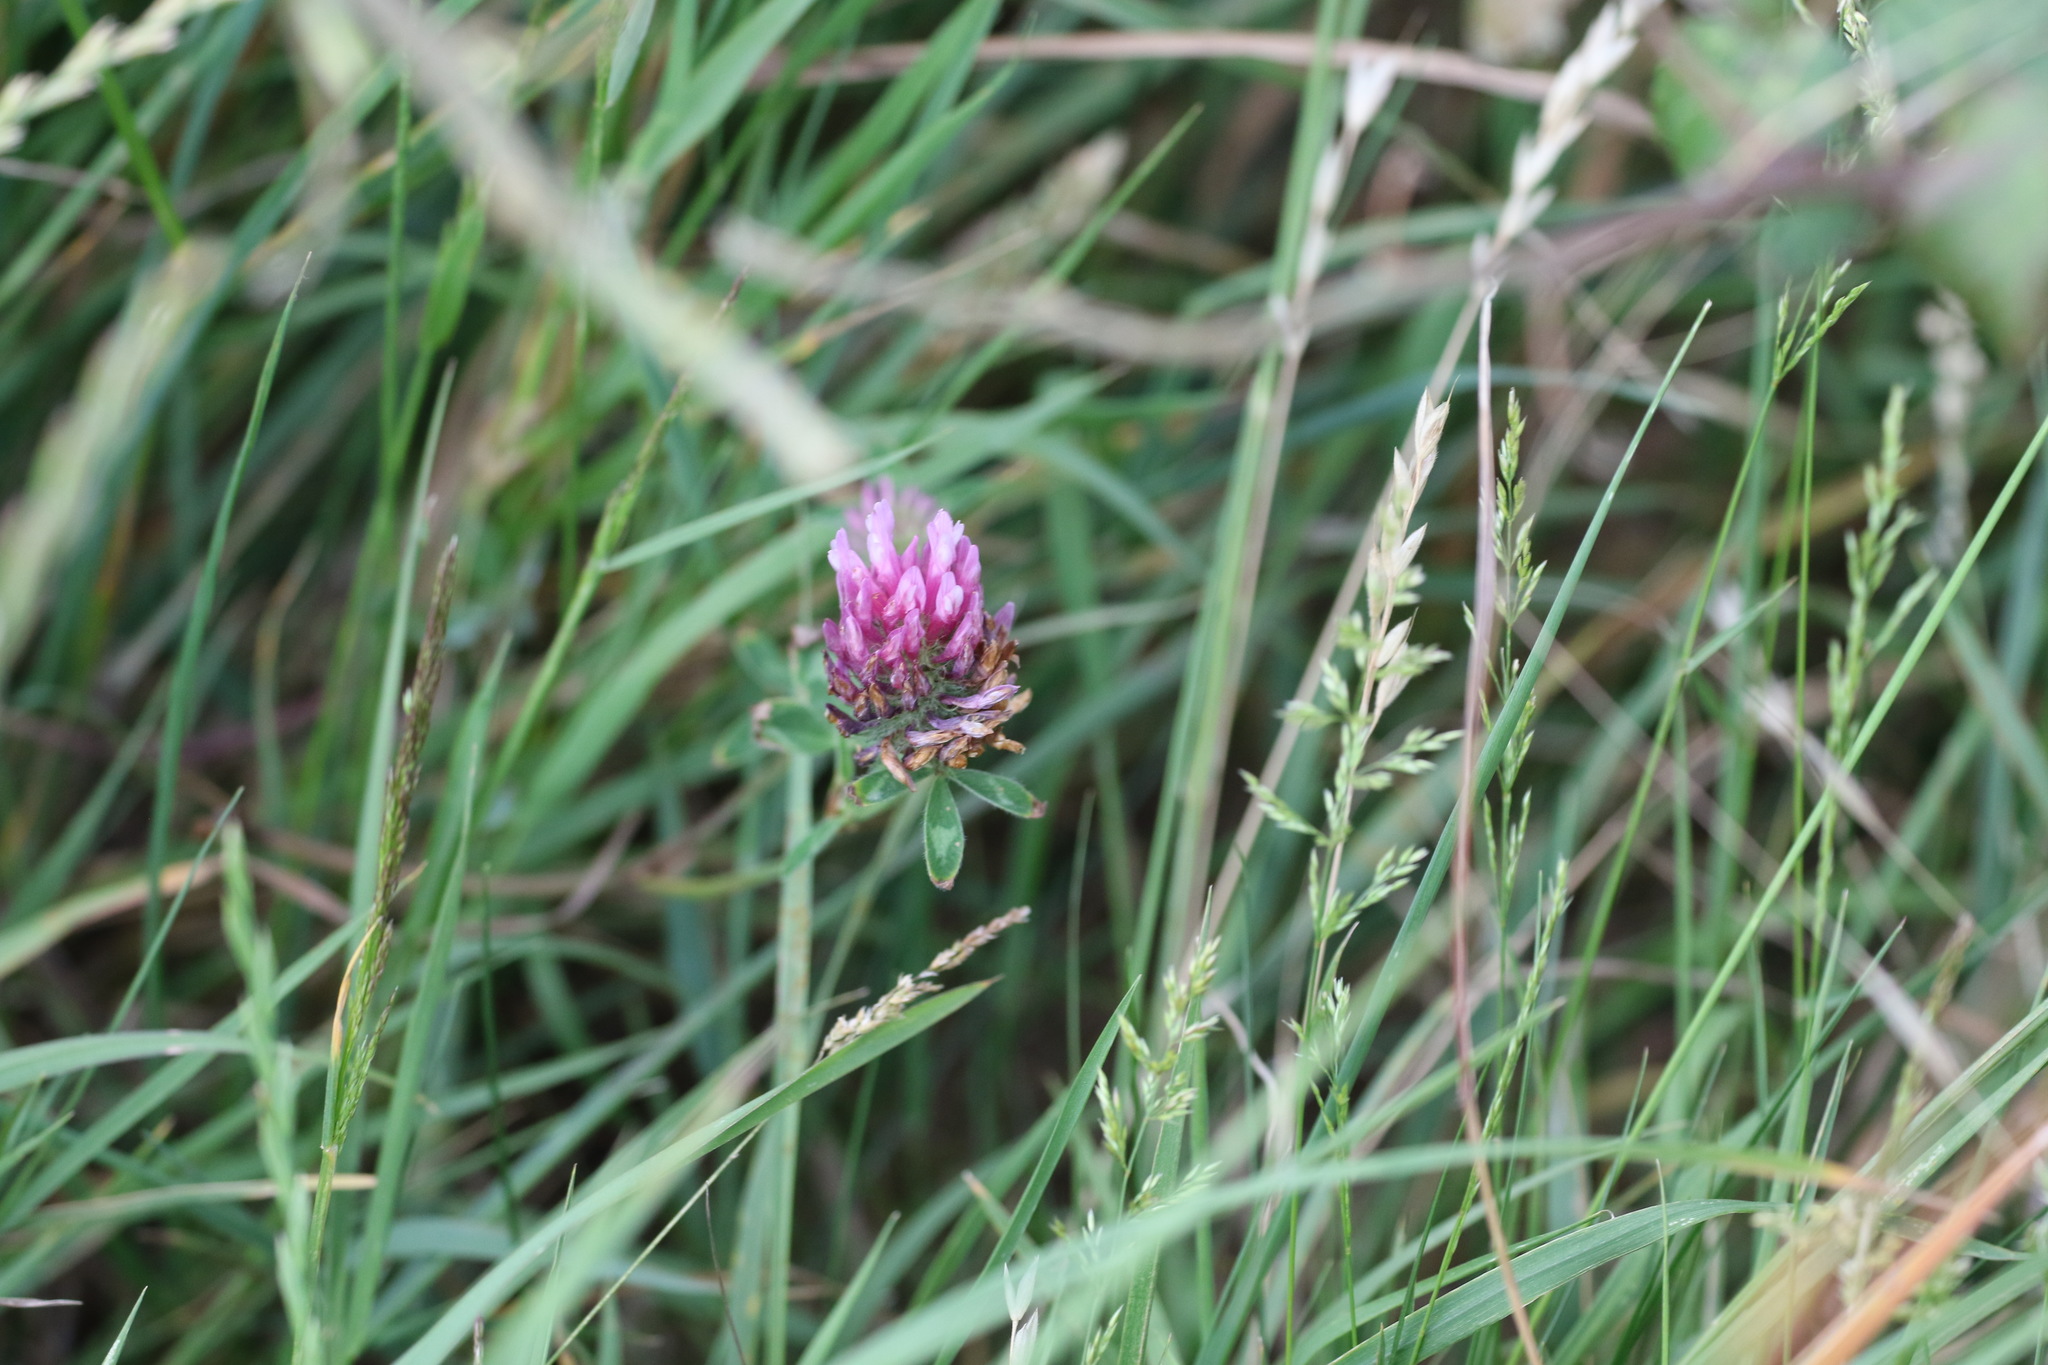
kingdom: Plantae
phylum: Tracheophyta
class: Magnoliopsida
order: Fabales
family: Fabaceae
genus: Trifolium
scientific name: Trifolium pratense
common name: Red clover
